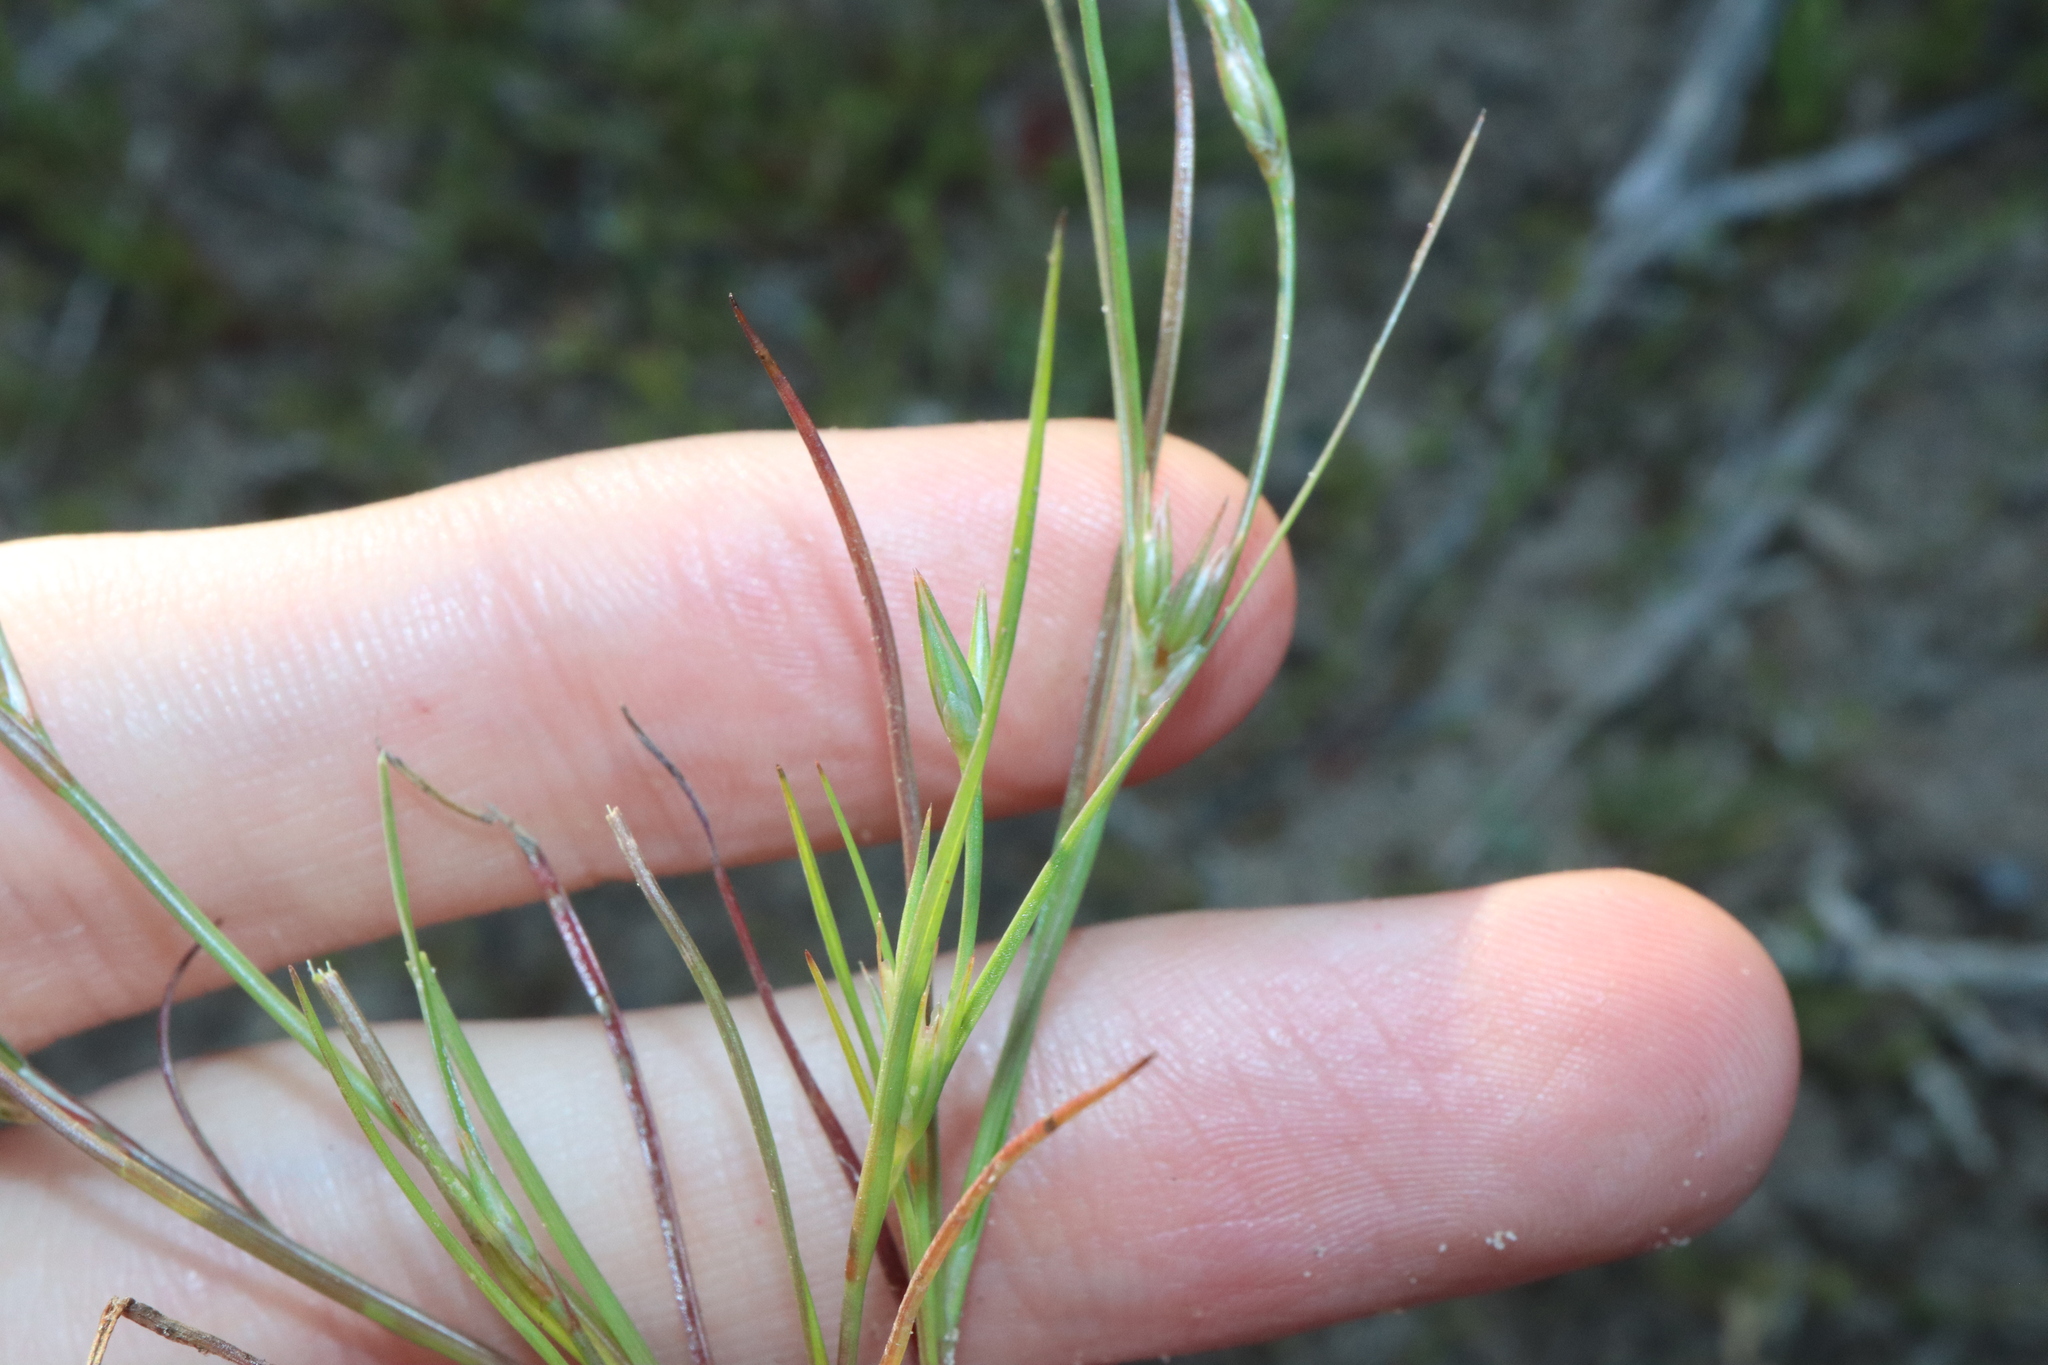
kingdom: Plantae
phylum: Tracheophyta
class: Liliopsida
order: Poales
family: Juncaceae
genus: Juncus
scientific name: Juncus bufonius
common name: Toad rush
